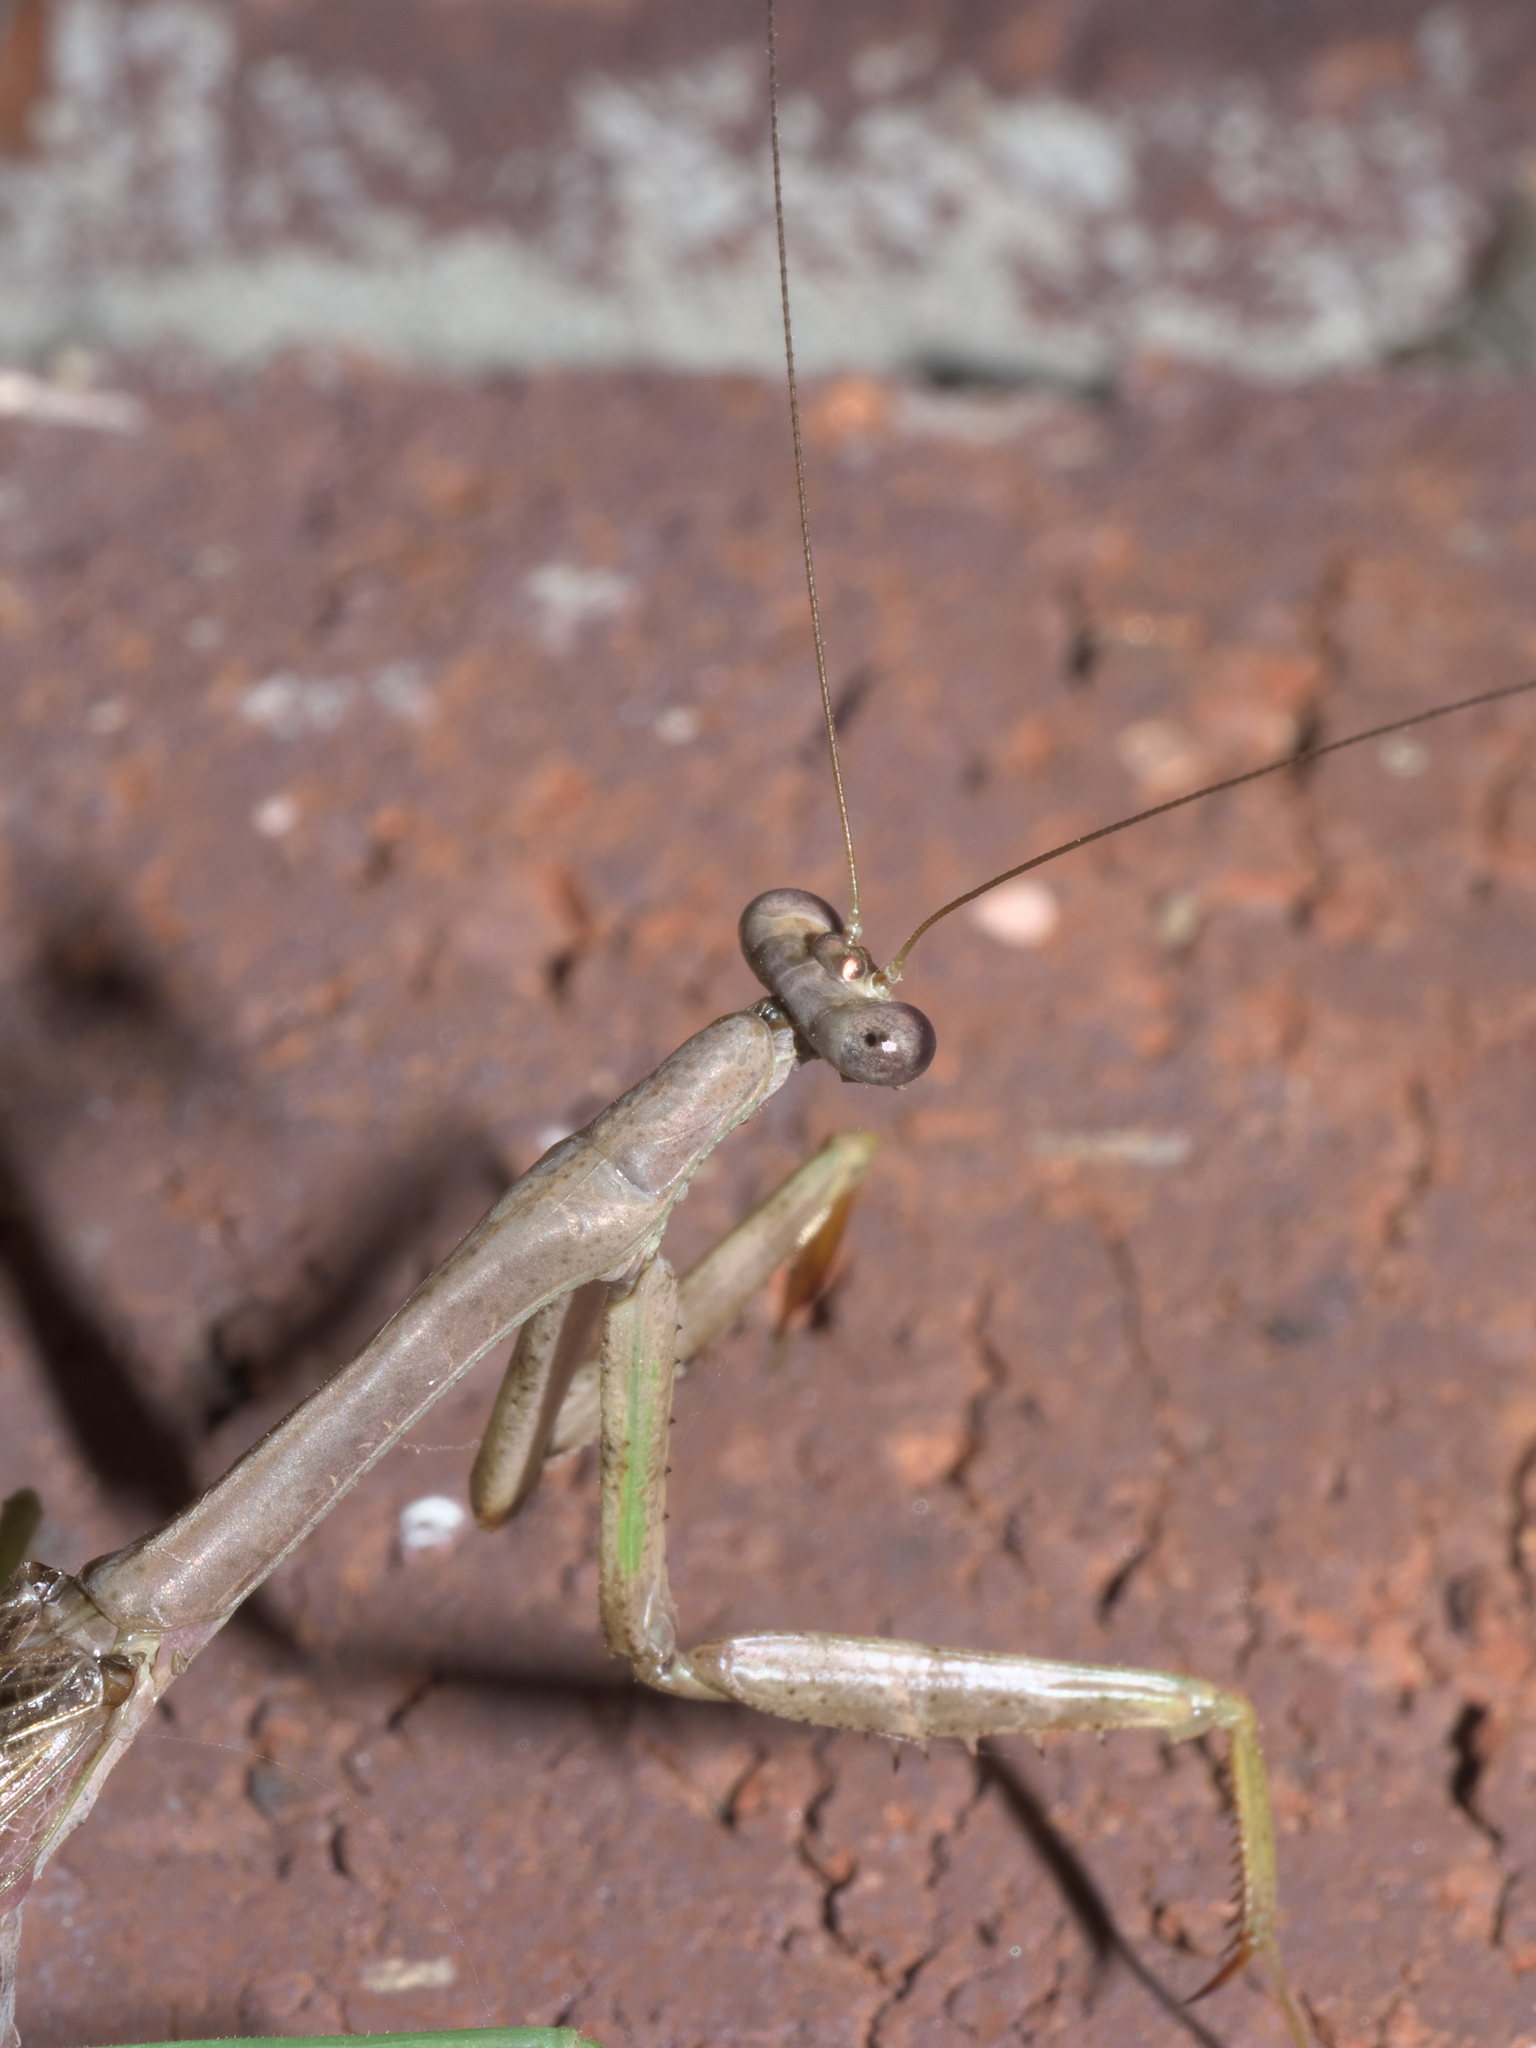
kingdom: Animalia
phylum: Arthropoda
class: Insecta
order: Mantodea
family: Mantidae
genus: Stagmomantis
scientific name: Stagmomantis carolina
